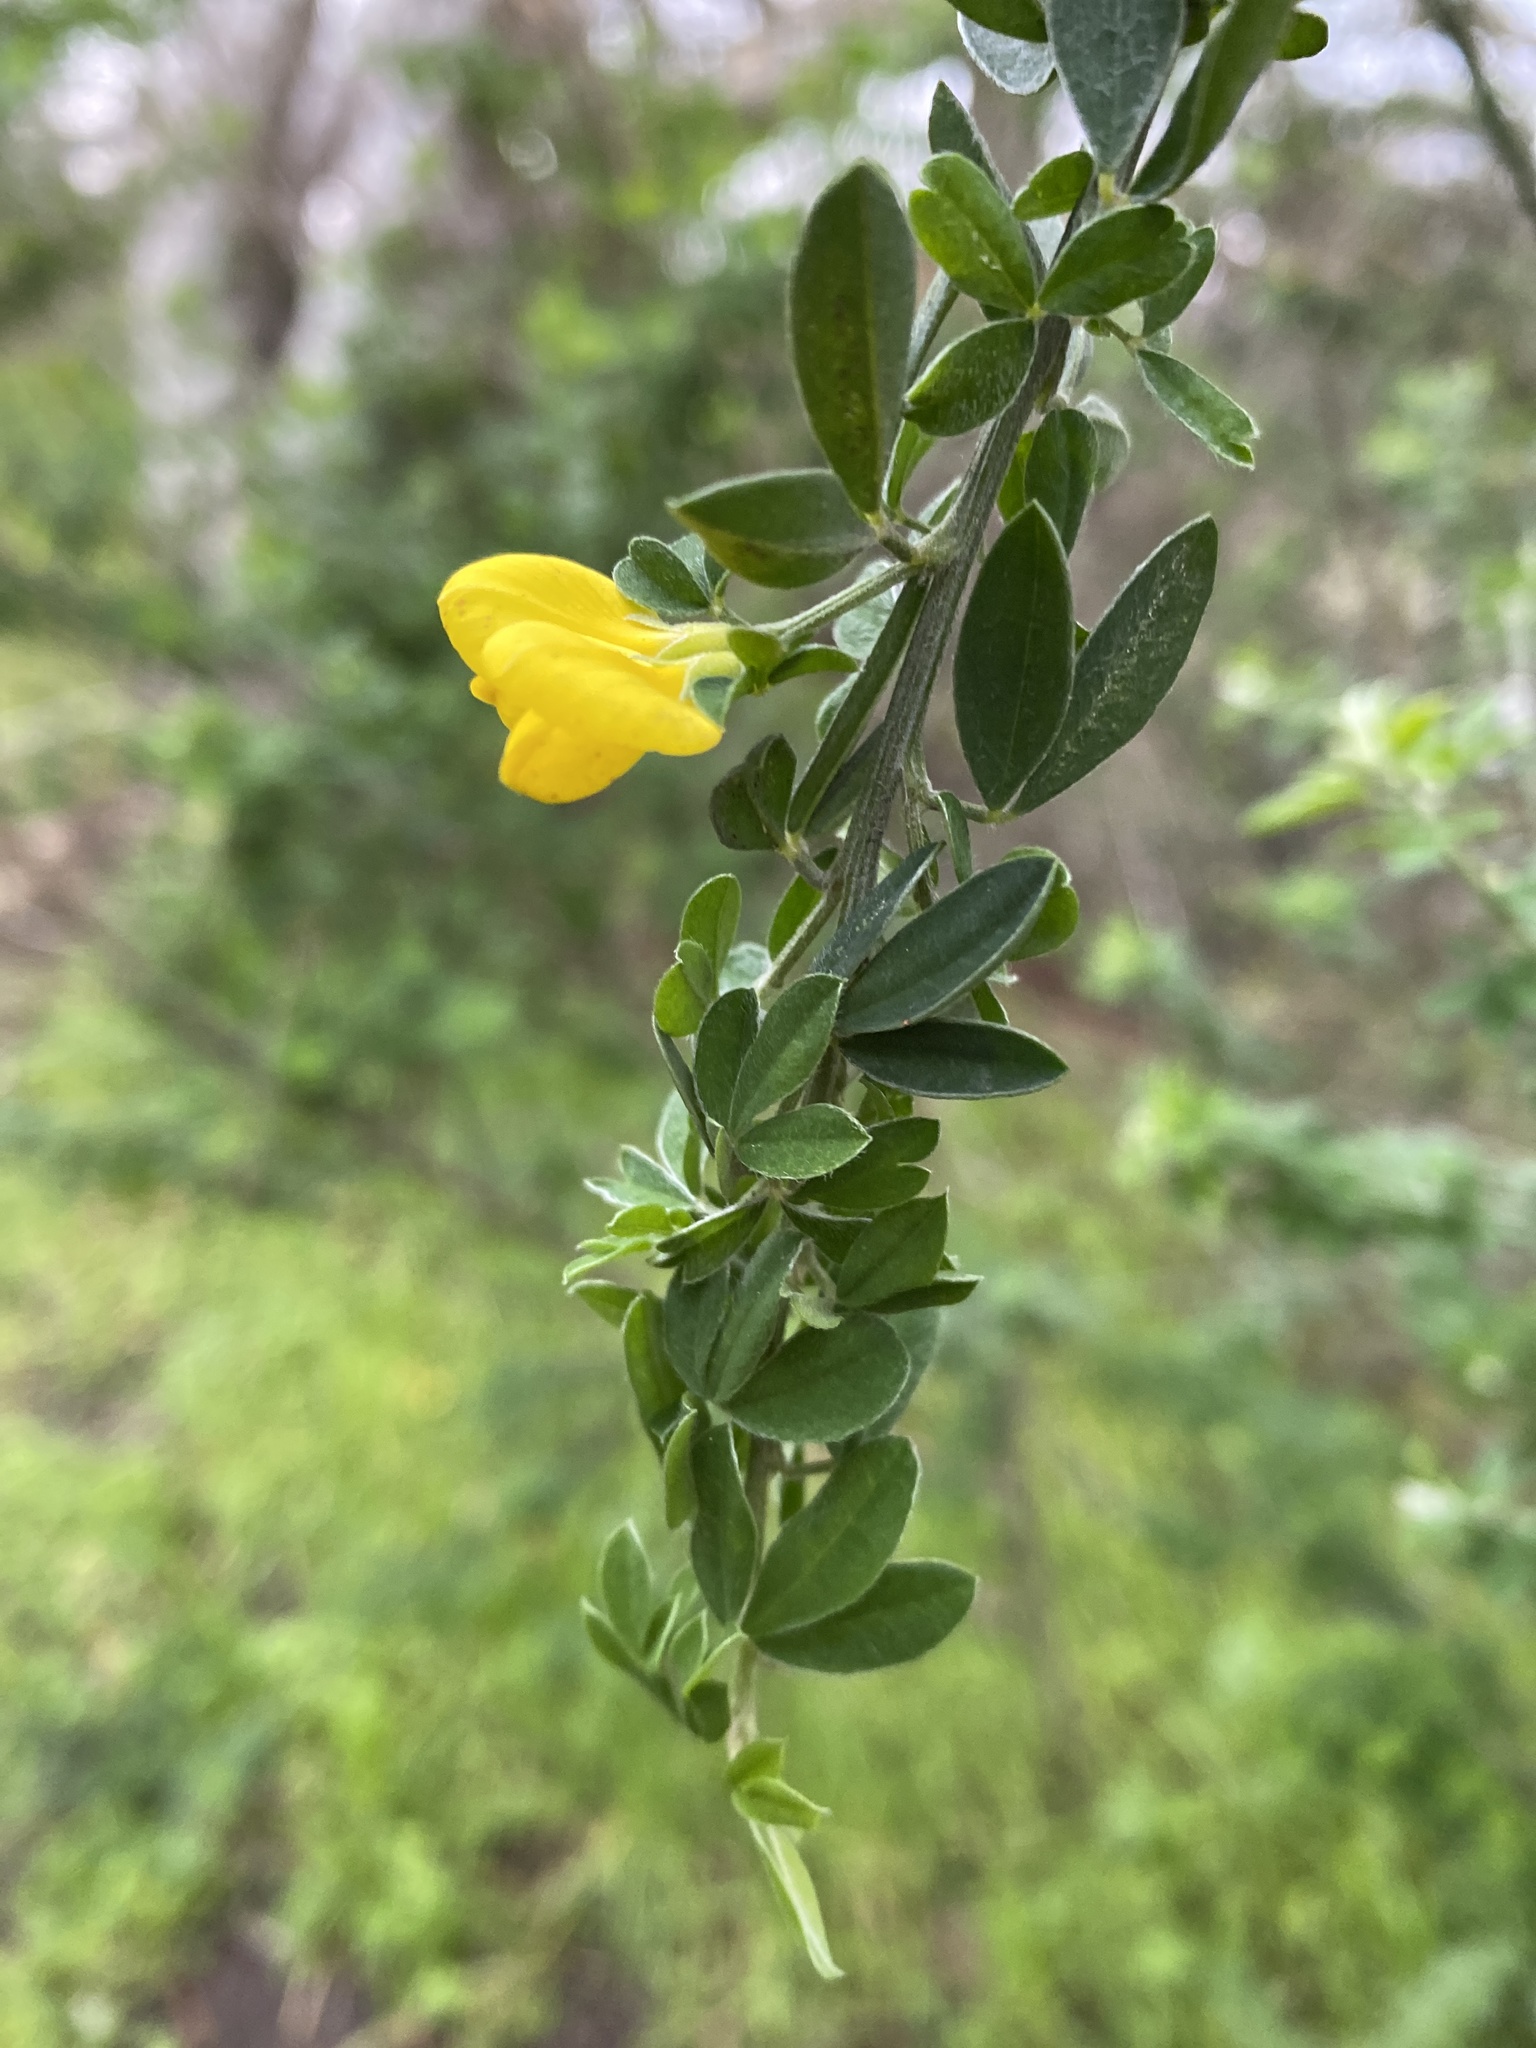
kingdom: Plantae
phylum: Tracheophyta
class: Magnoliopsida
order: Fabales
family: Fabaceae
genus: Genista
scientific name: Genista monspessulana
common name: Montpellier broom
